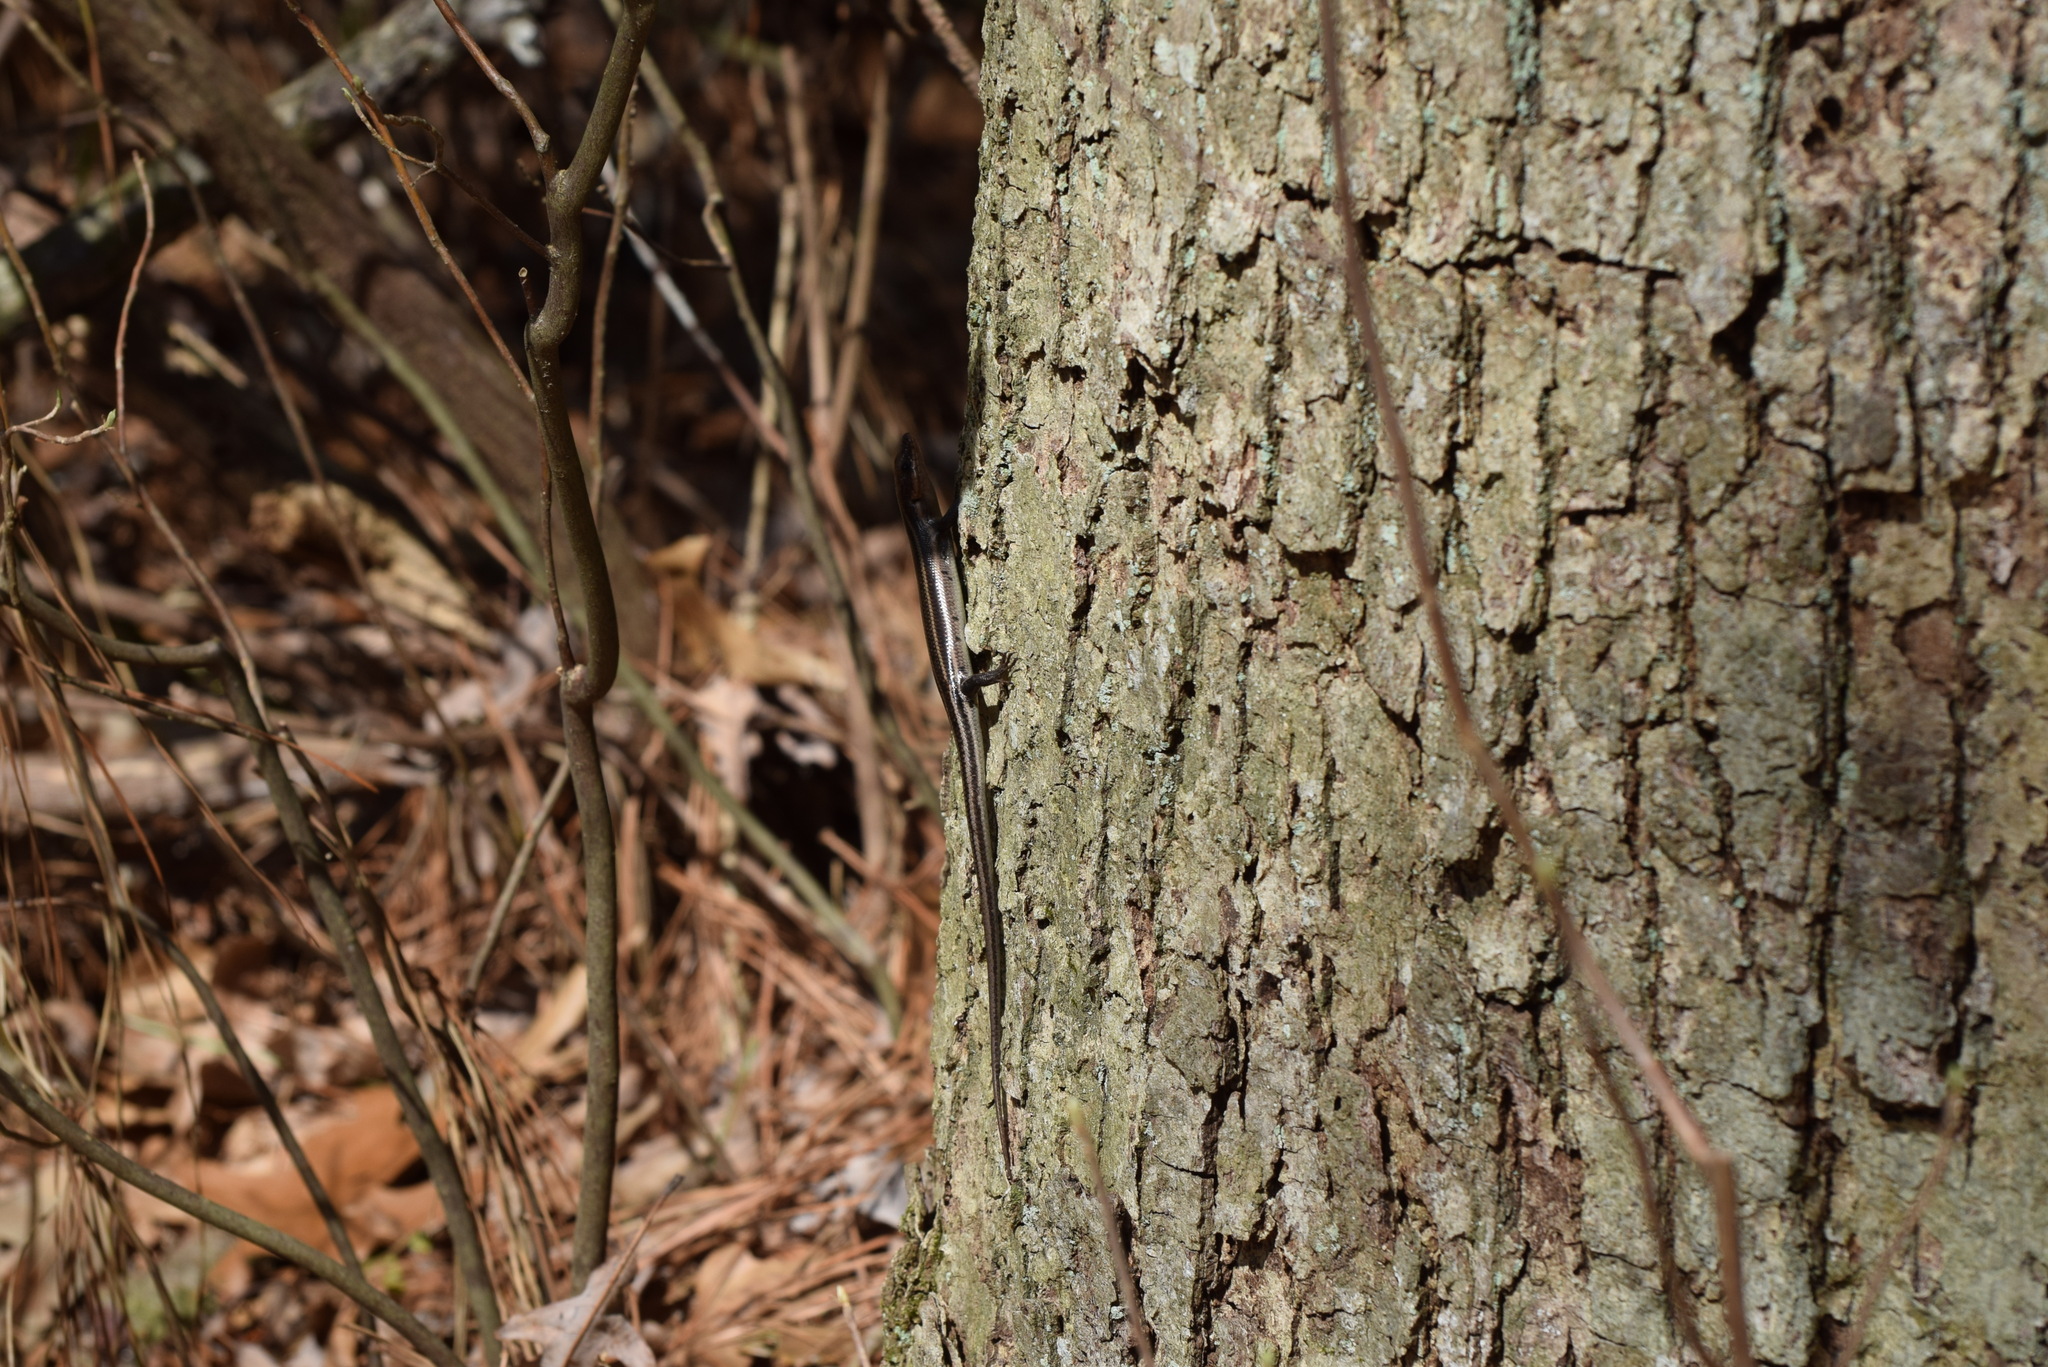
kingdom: Animalia
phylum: Chordata
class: Squamata
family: Scincidae
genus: Plestiodon
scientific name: Plestiodon fasciatus
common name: Five-lined skink
